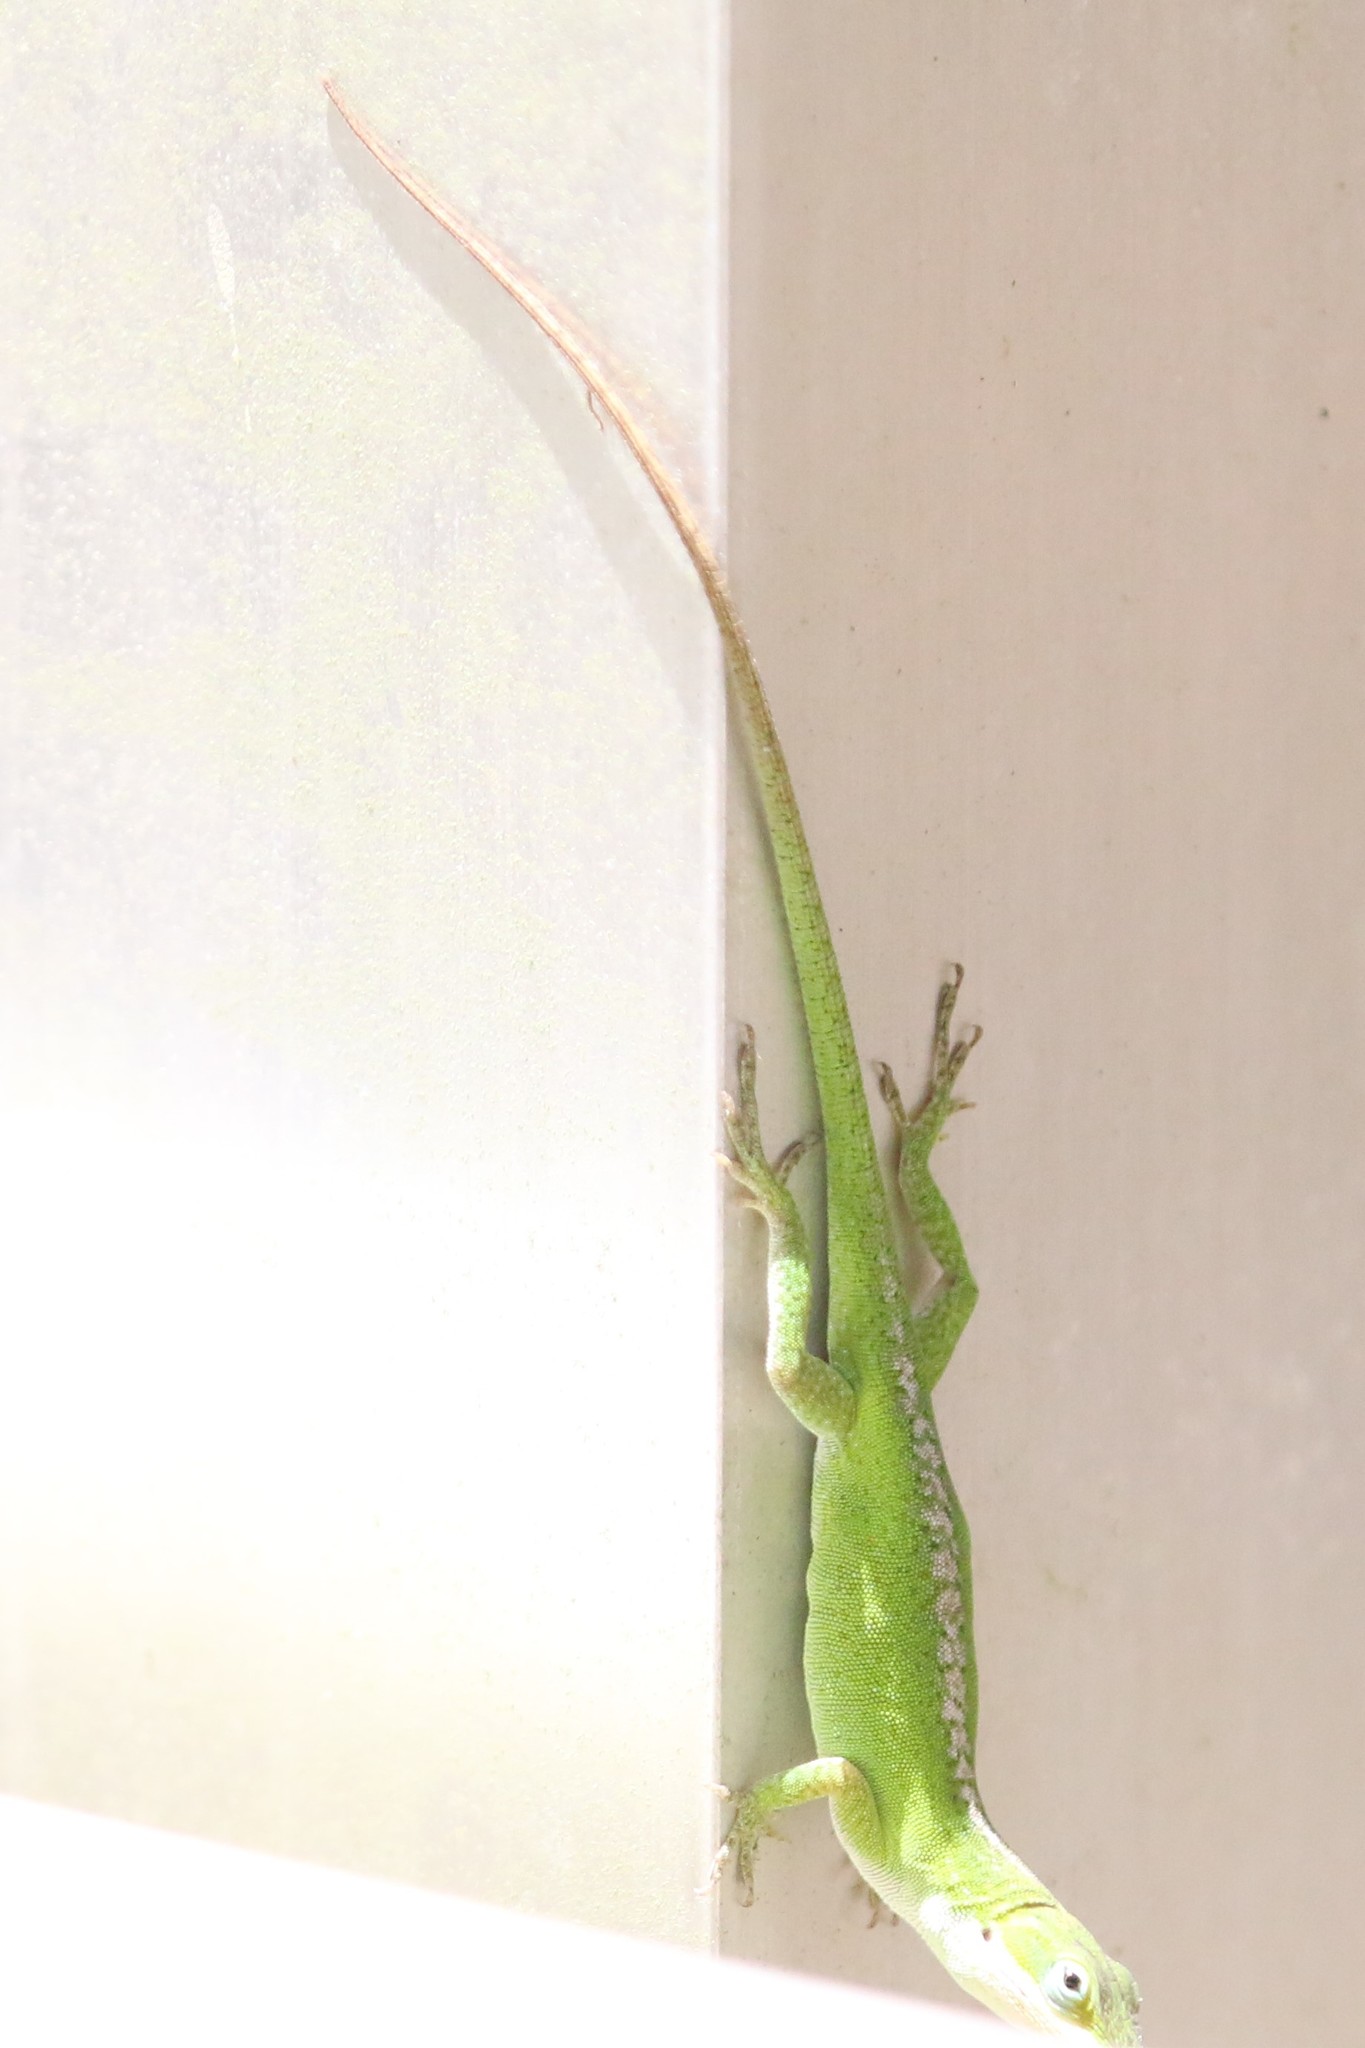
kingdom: Animalia
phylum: Chordata
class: Squamata
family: Dactyloidae
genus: Anolis
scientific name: Anolis carolinensis
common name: Green anole
